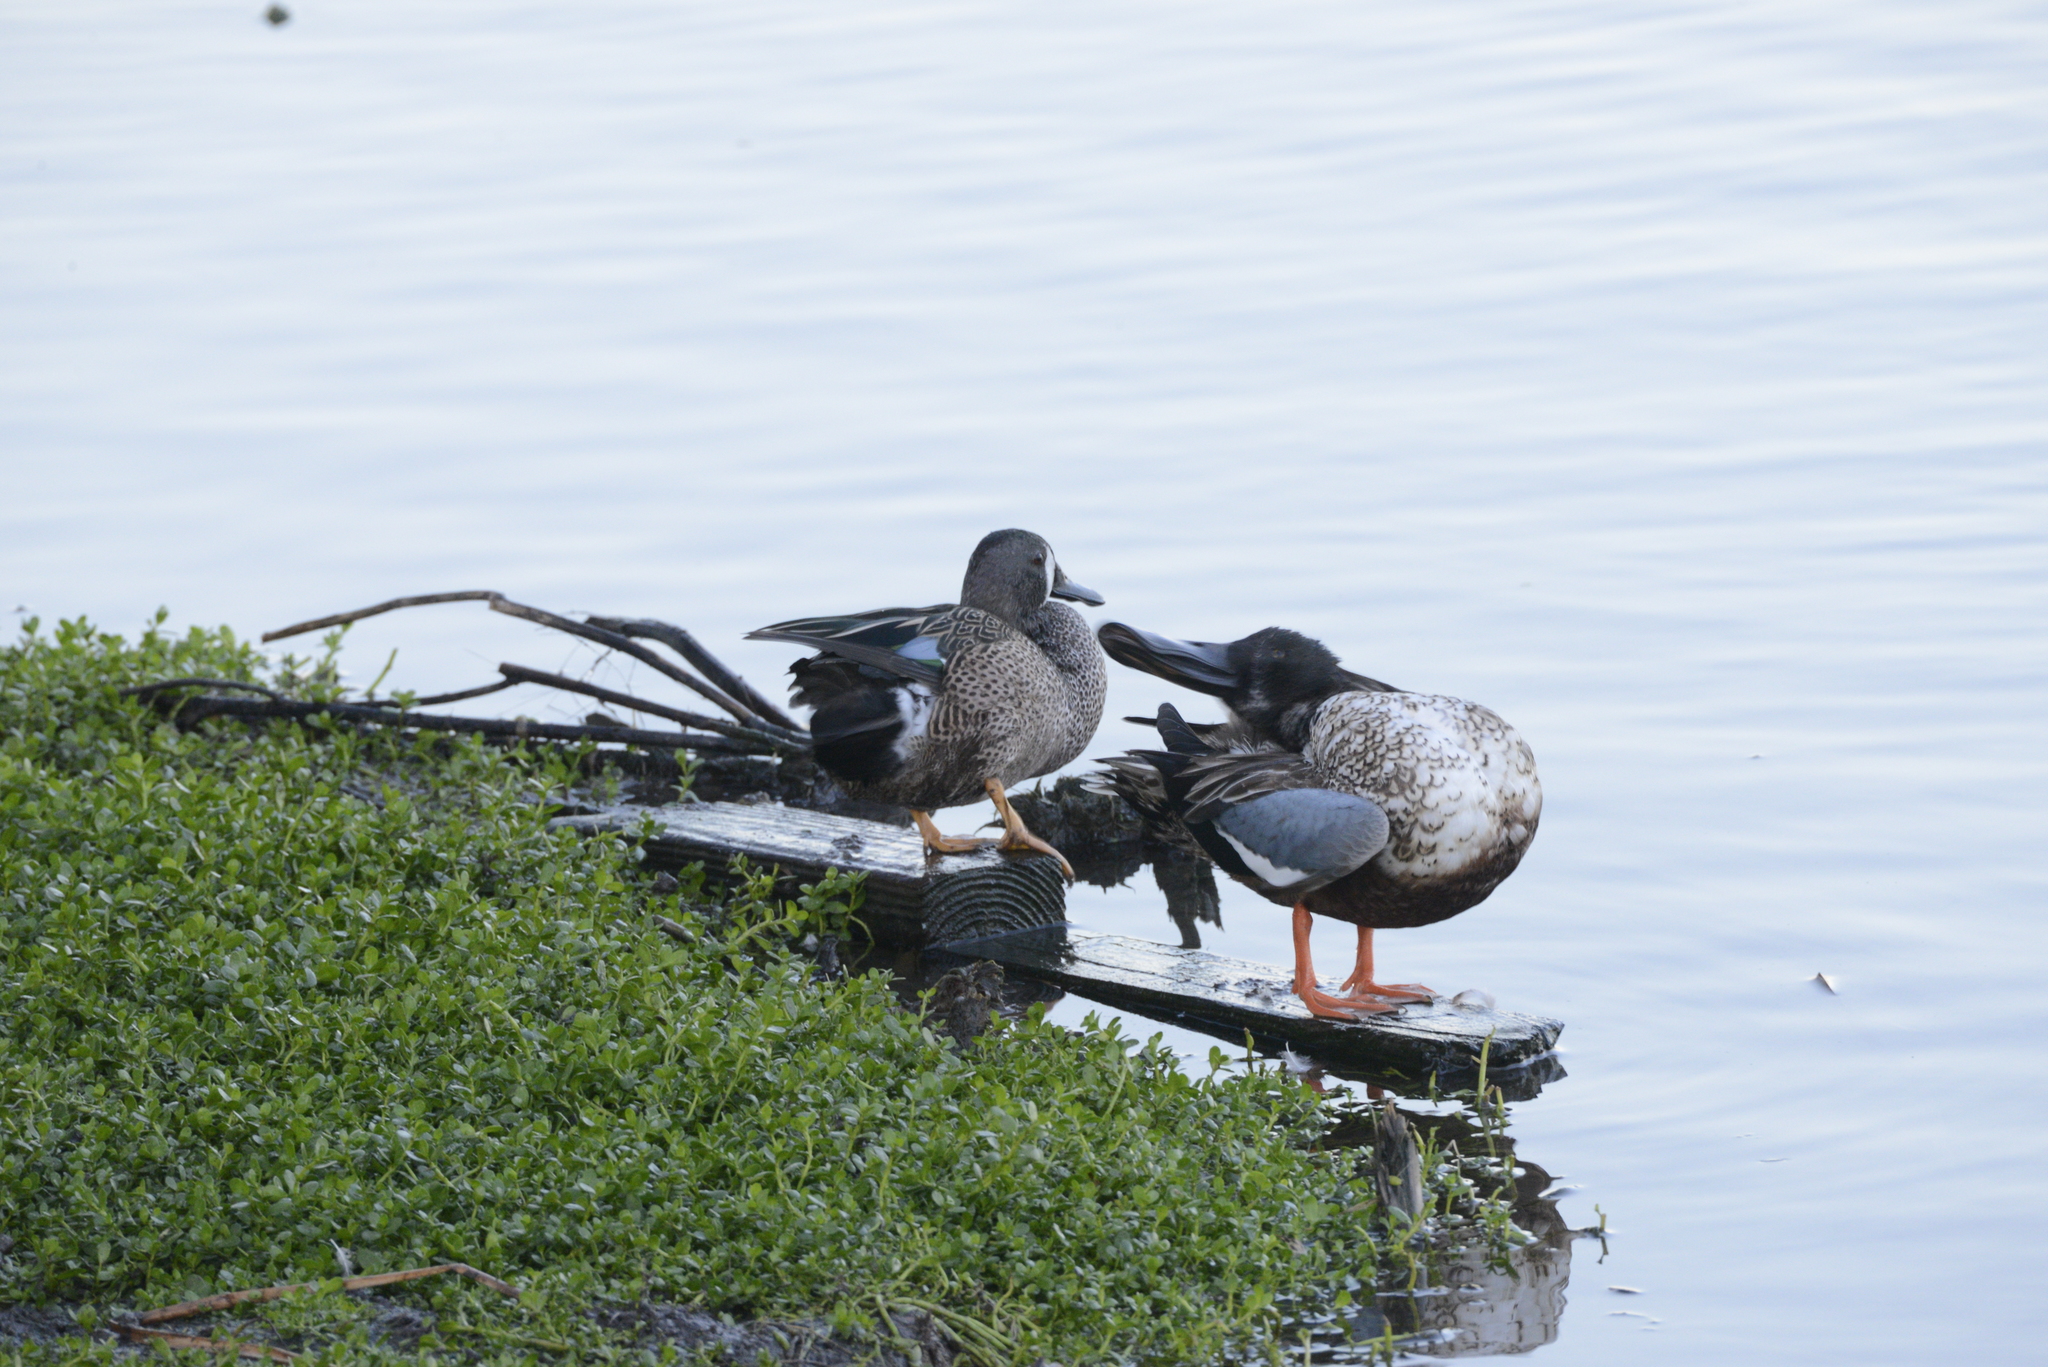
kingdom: Animalia
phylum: Chordata
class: Aves
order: Anseriformes
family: Anatidae
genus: Spatula
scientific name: Spatula discors
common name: Blue-winged teal
